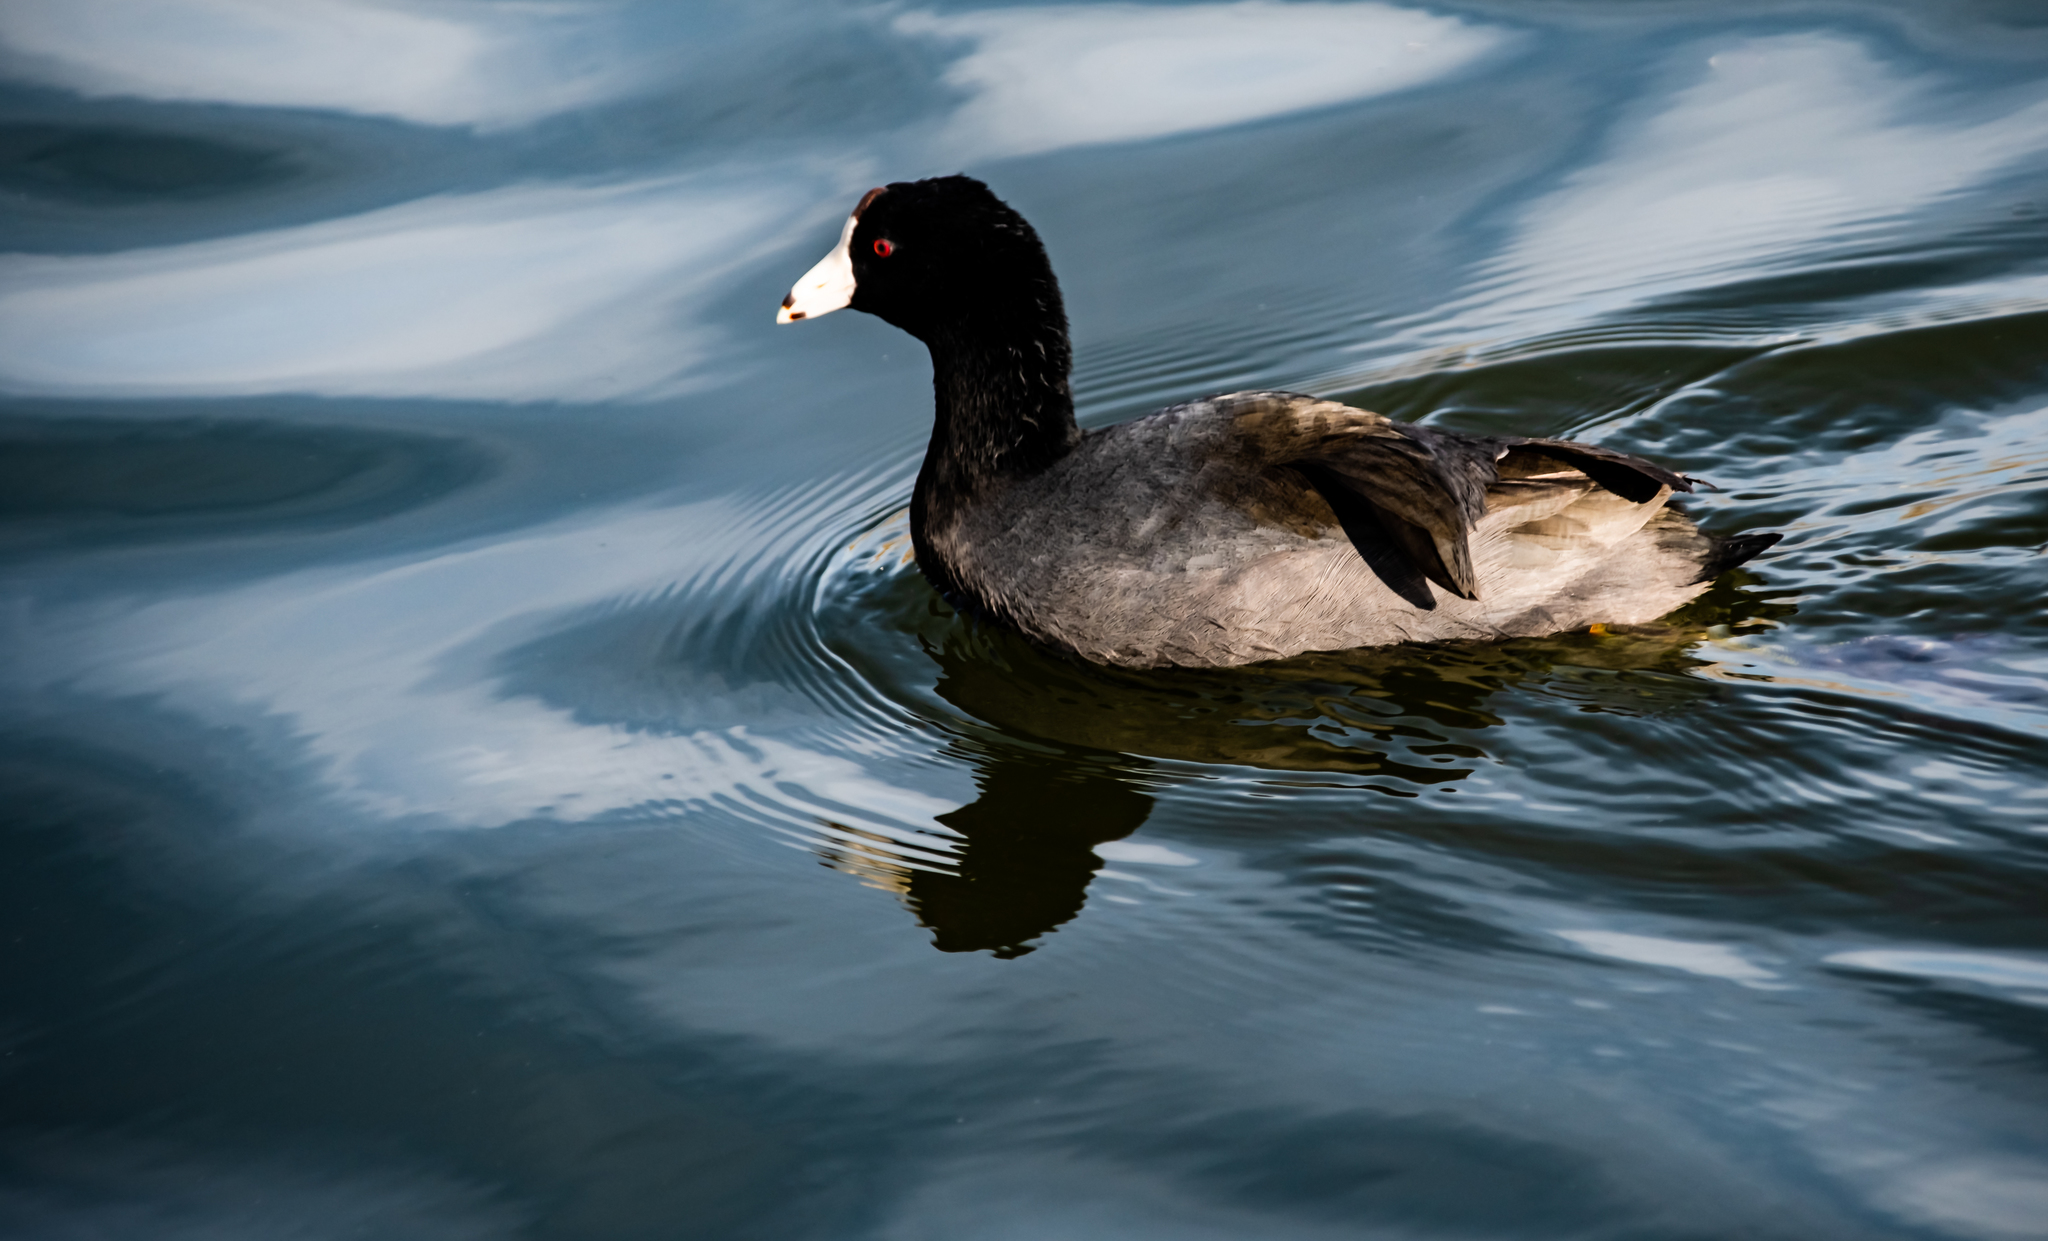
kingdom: Animalia
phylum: Chordata
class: Aves
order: Gruiformes
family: Rallidae
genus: Fulica
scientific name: Fulica americana
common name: American coot
